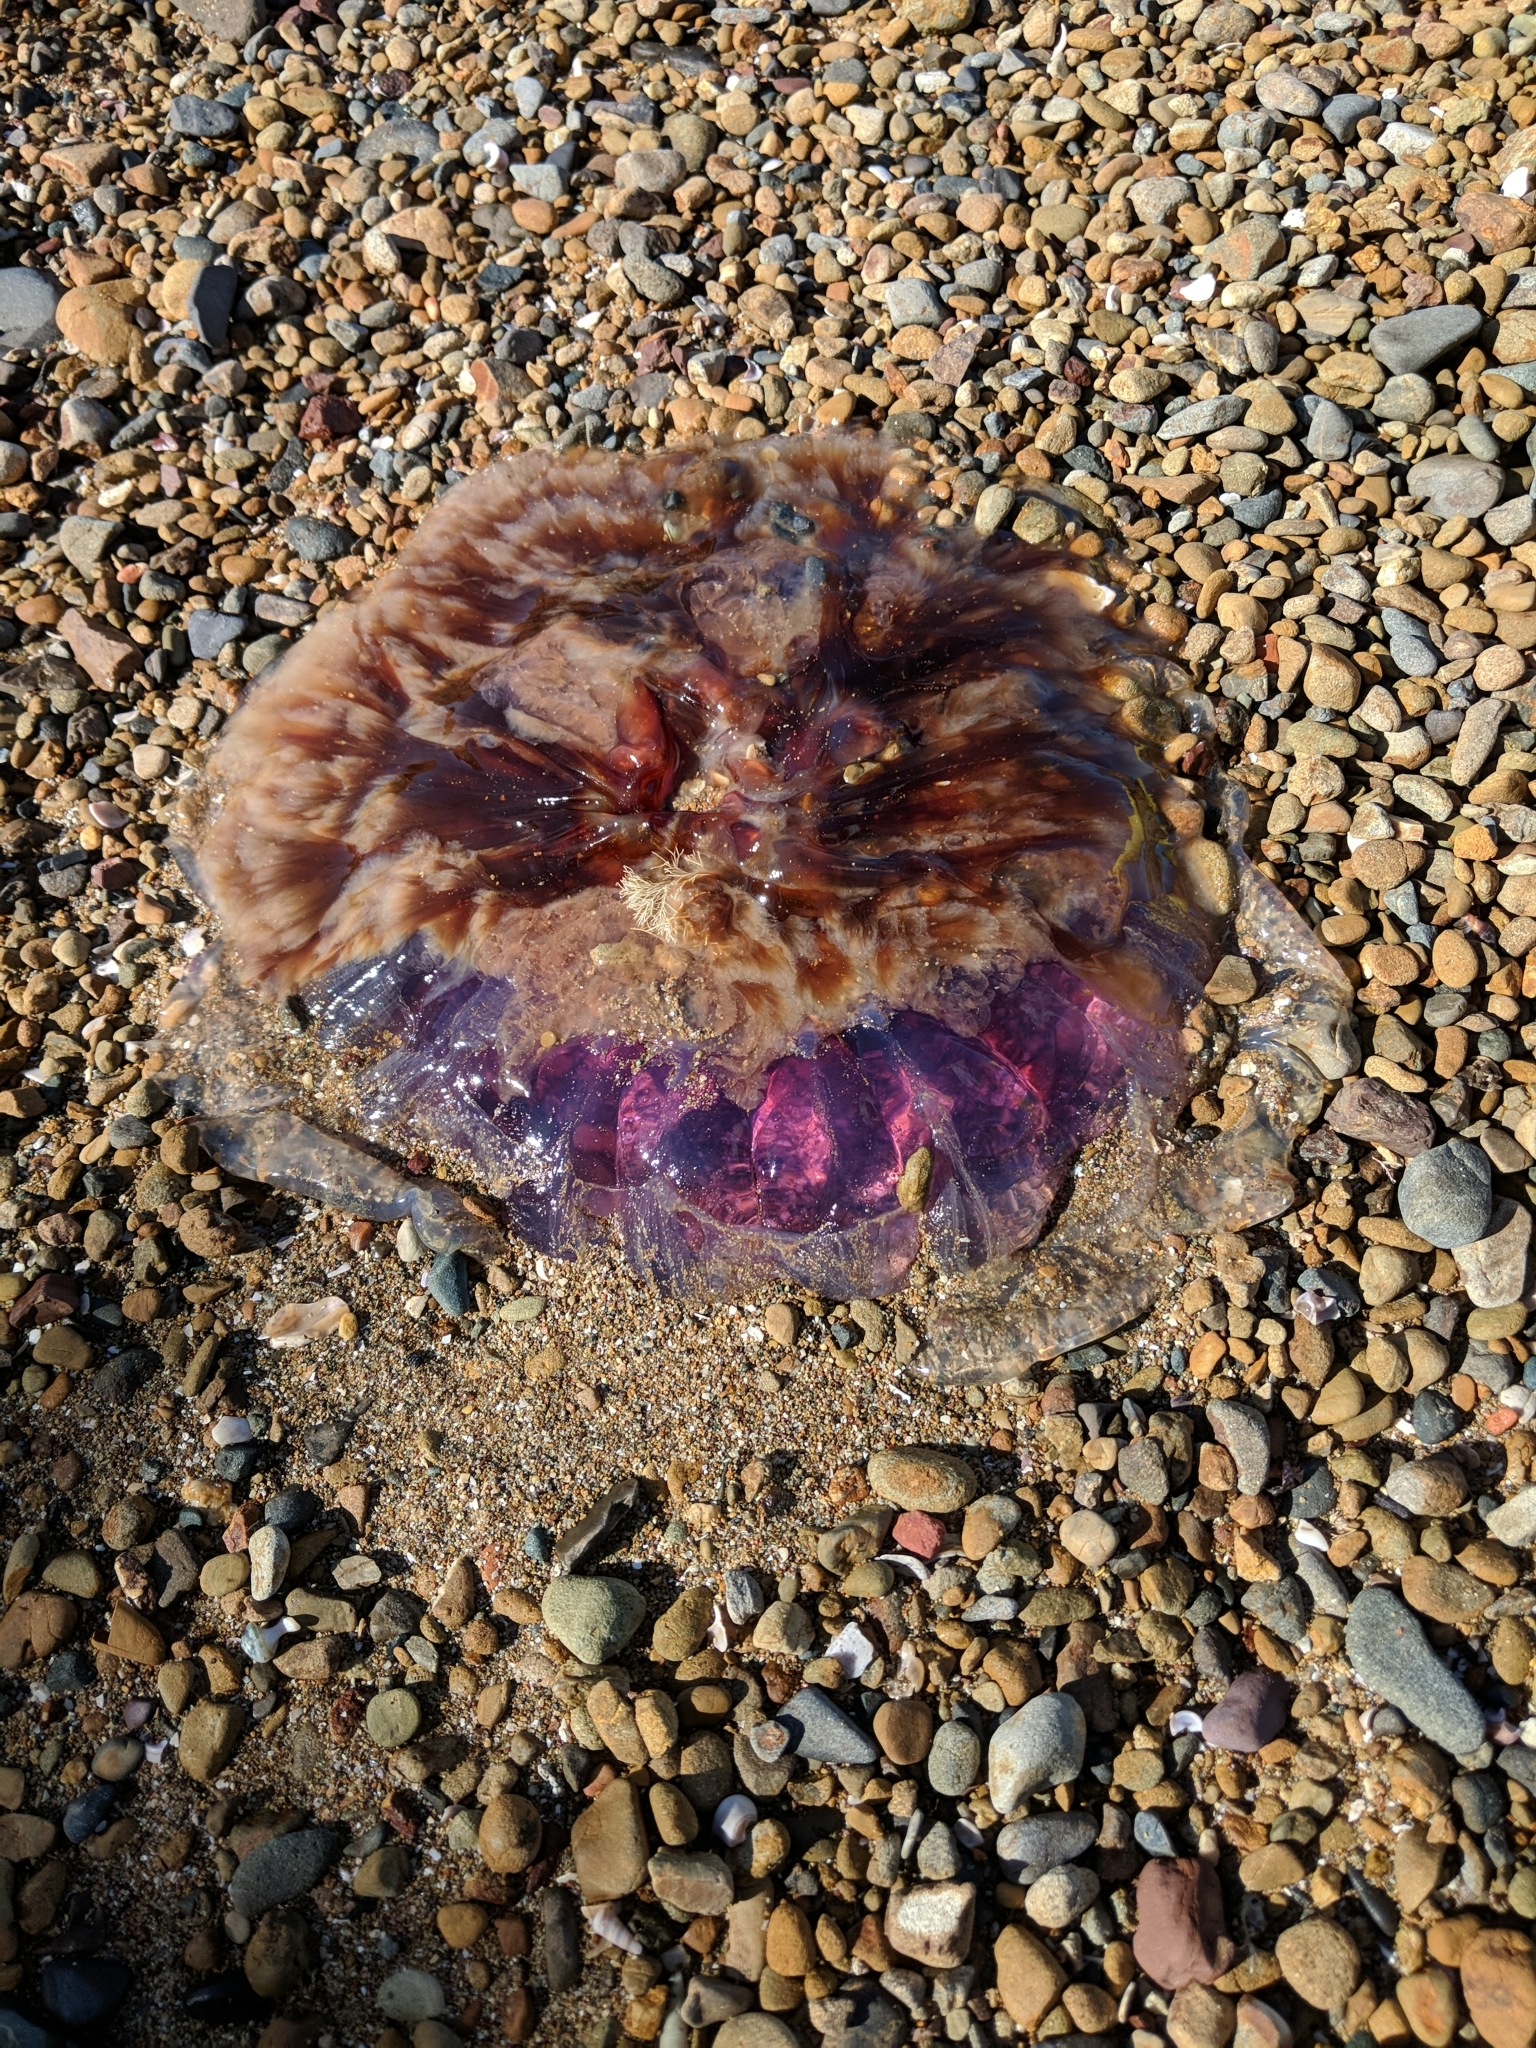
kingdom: Animalia
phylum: Cnidaria
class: Scyphozoa
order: Semaeostomeae
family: Cyaneidae
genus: Cyanea
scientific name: Cyanea
